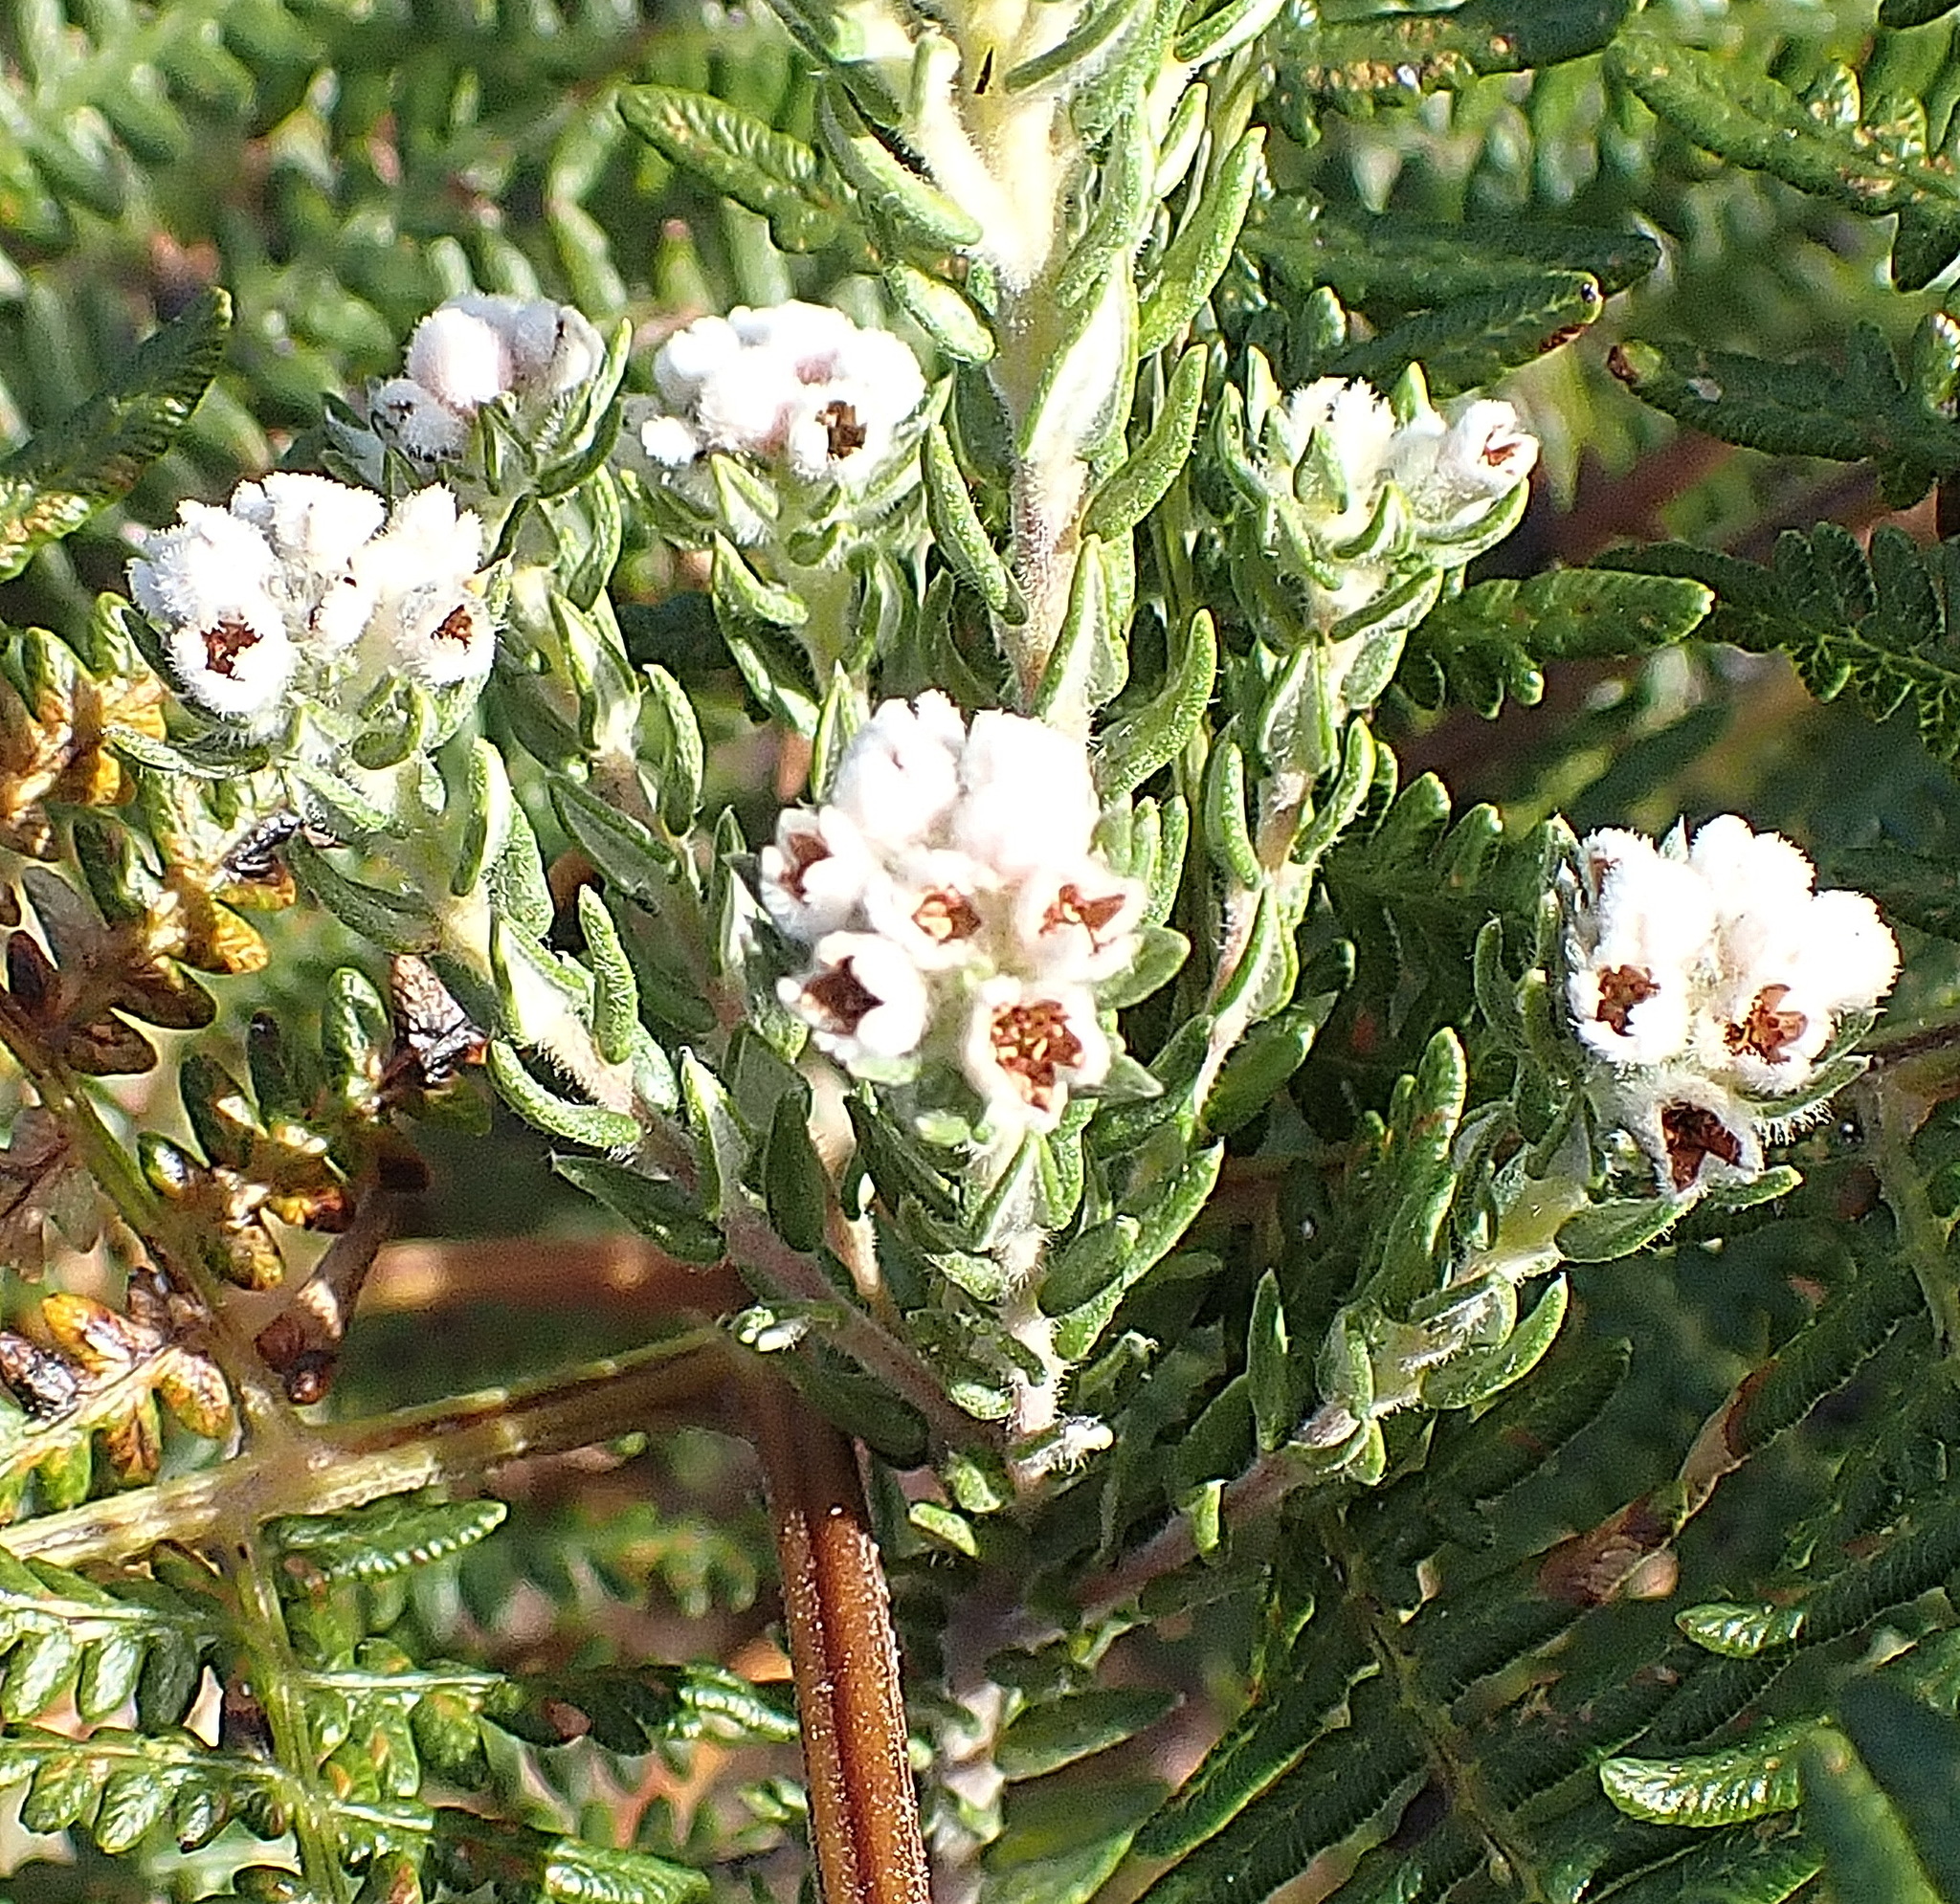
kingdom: Plantae
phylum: Tracheophyta
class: Magnoliopsida
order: Rosales
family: Rhamnaceae
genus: Phylica
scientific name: Phylica purpurea
